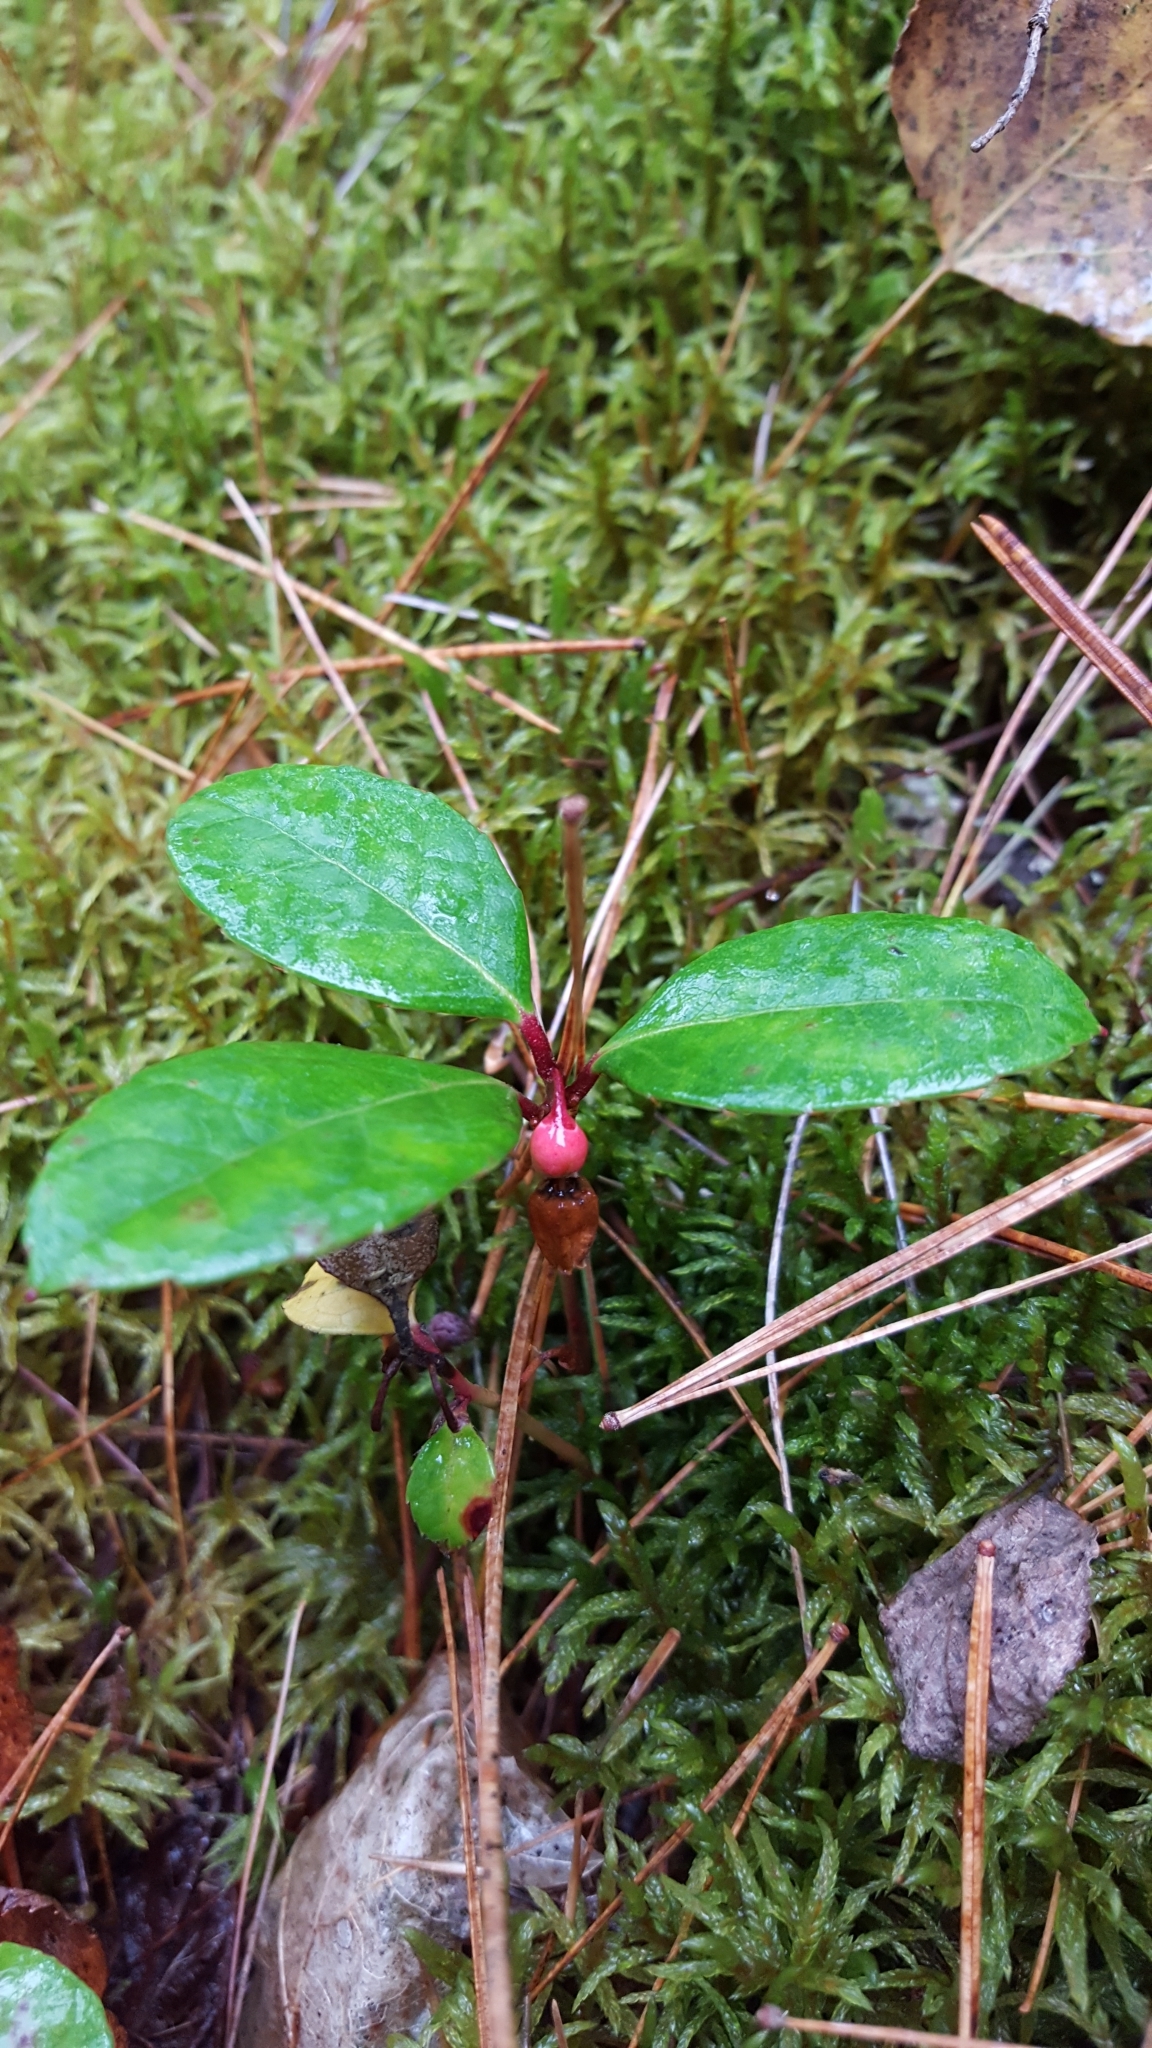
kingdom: Plantae
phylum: Tracheophyta
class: Magnoliopsida
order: Ericales
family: Ericaceae
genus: Gaultheria
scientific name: Gaultheria procumbens
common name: Checkerberry
